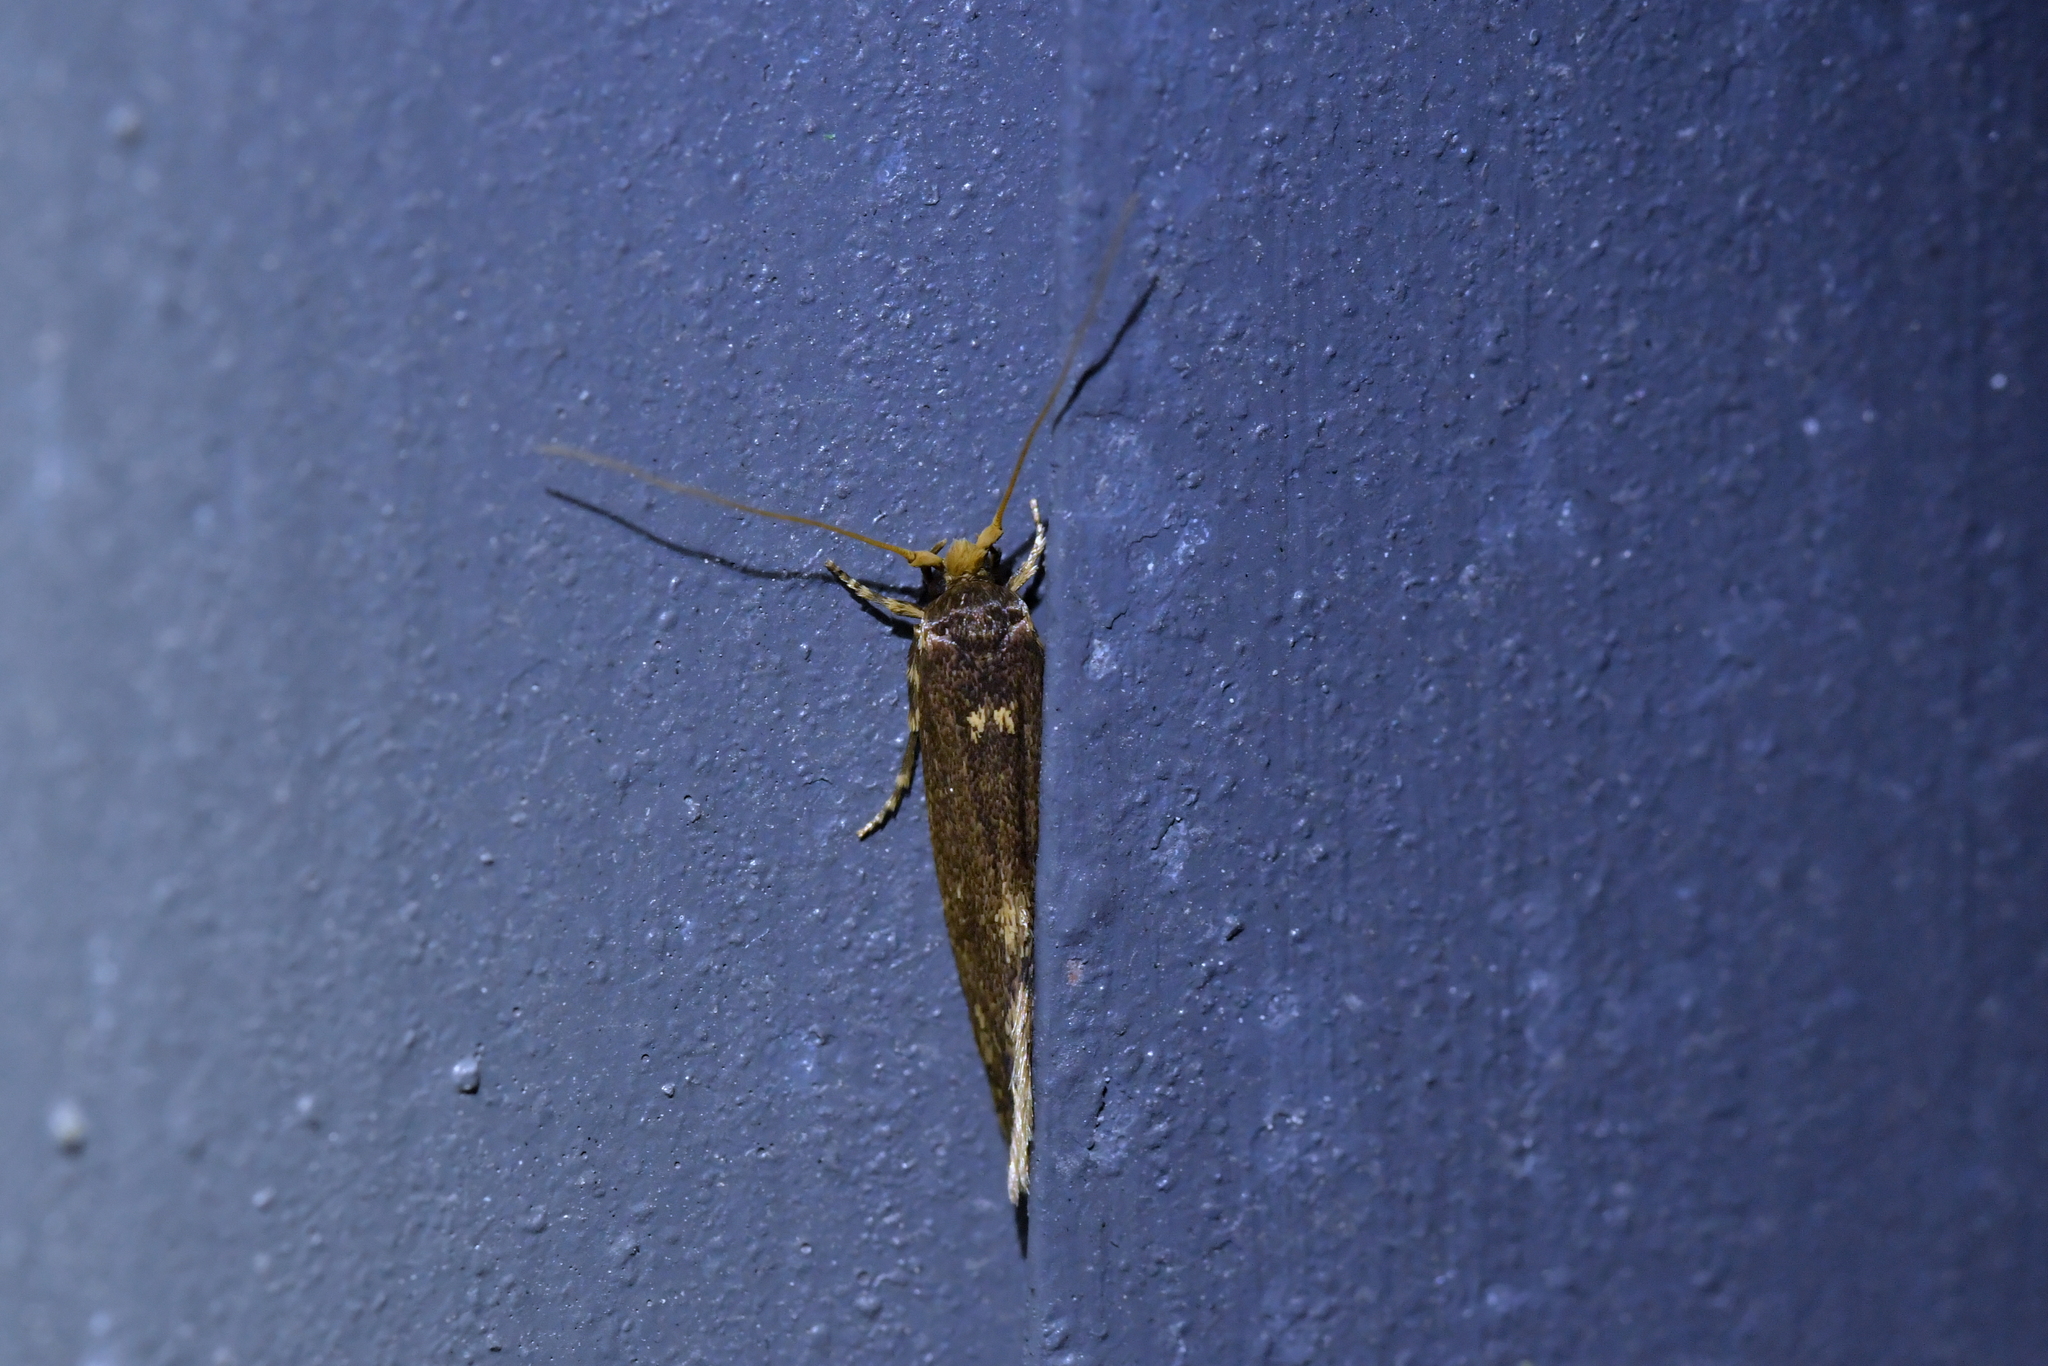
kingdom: Animalia
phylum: Arthropoda
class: Insecta
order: Lepidoptera
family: Tineidae
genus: Opogona
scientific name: Opogona omoscopa
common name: Moth
